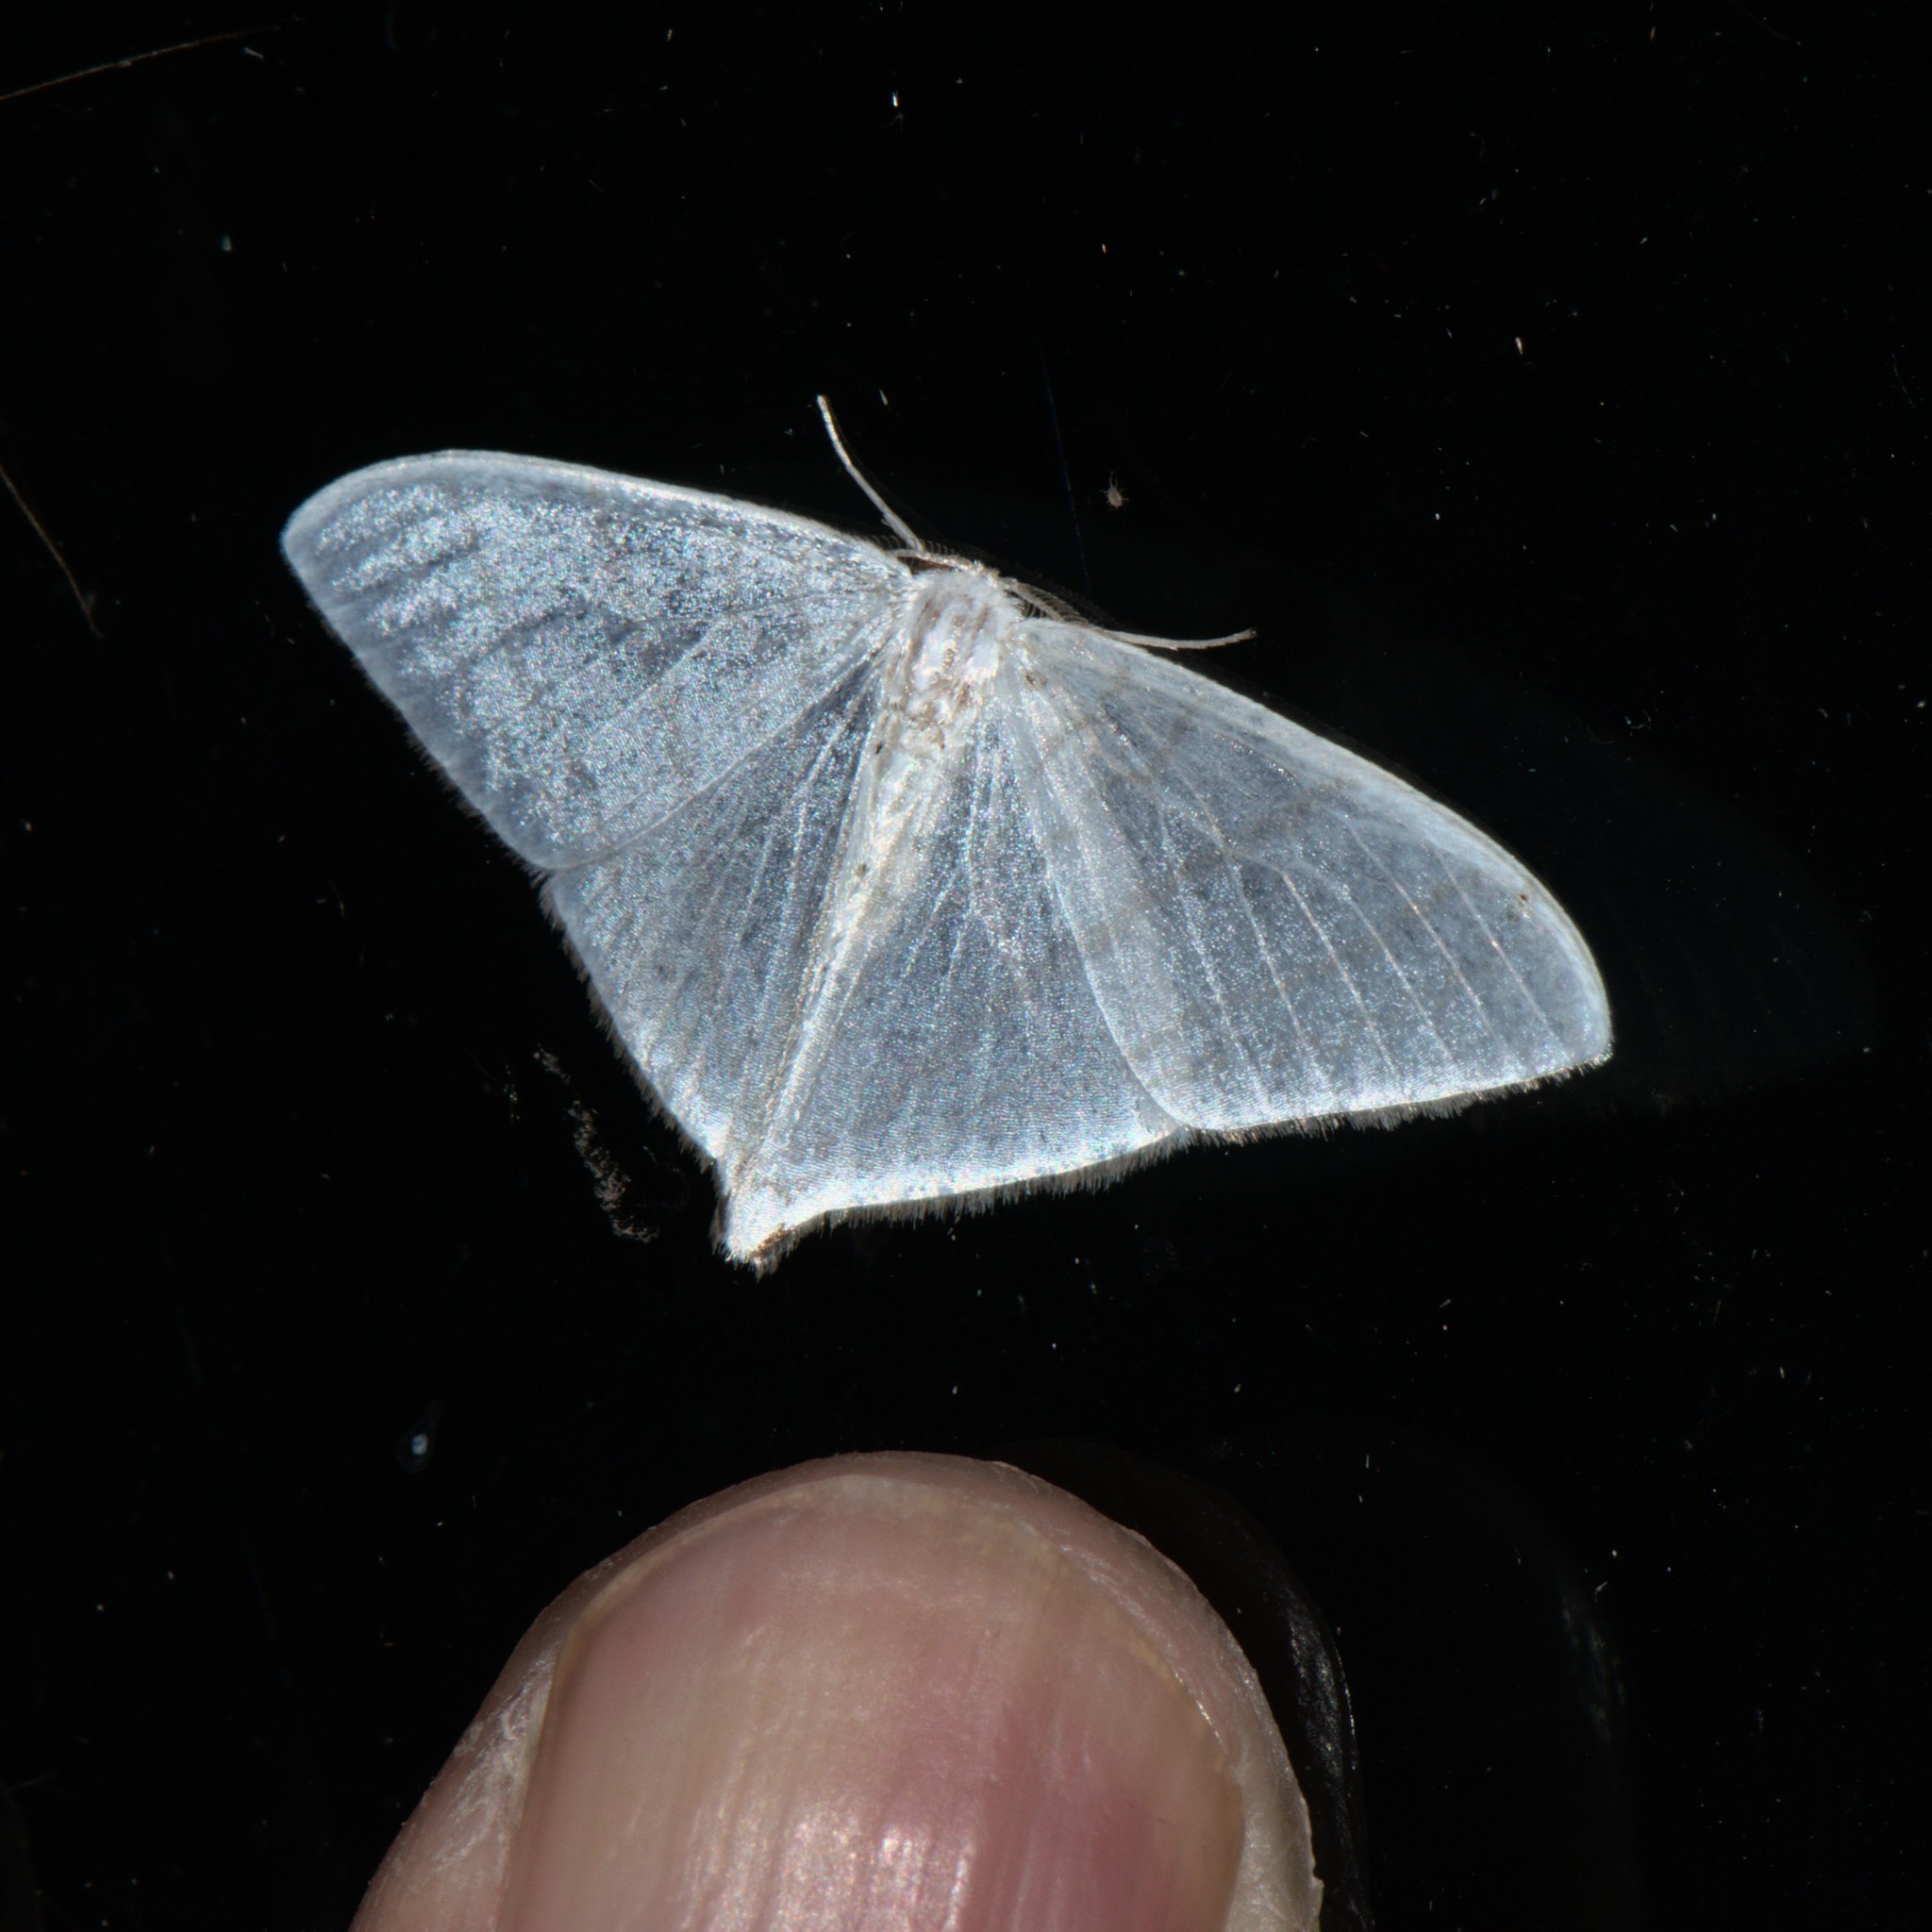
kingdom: Animalia
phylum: Arthropoda
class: Insecta
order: Lepidoptera
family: Drepanidae
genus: Ditrigona
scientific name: Ditrigona triangularia
